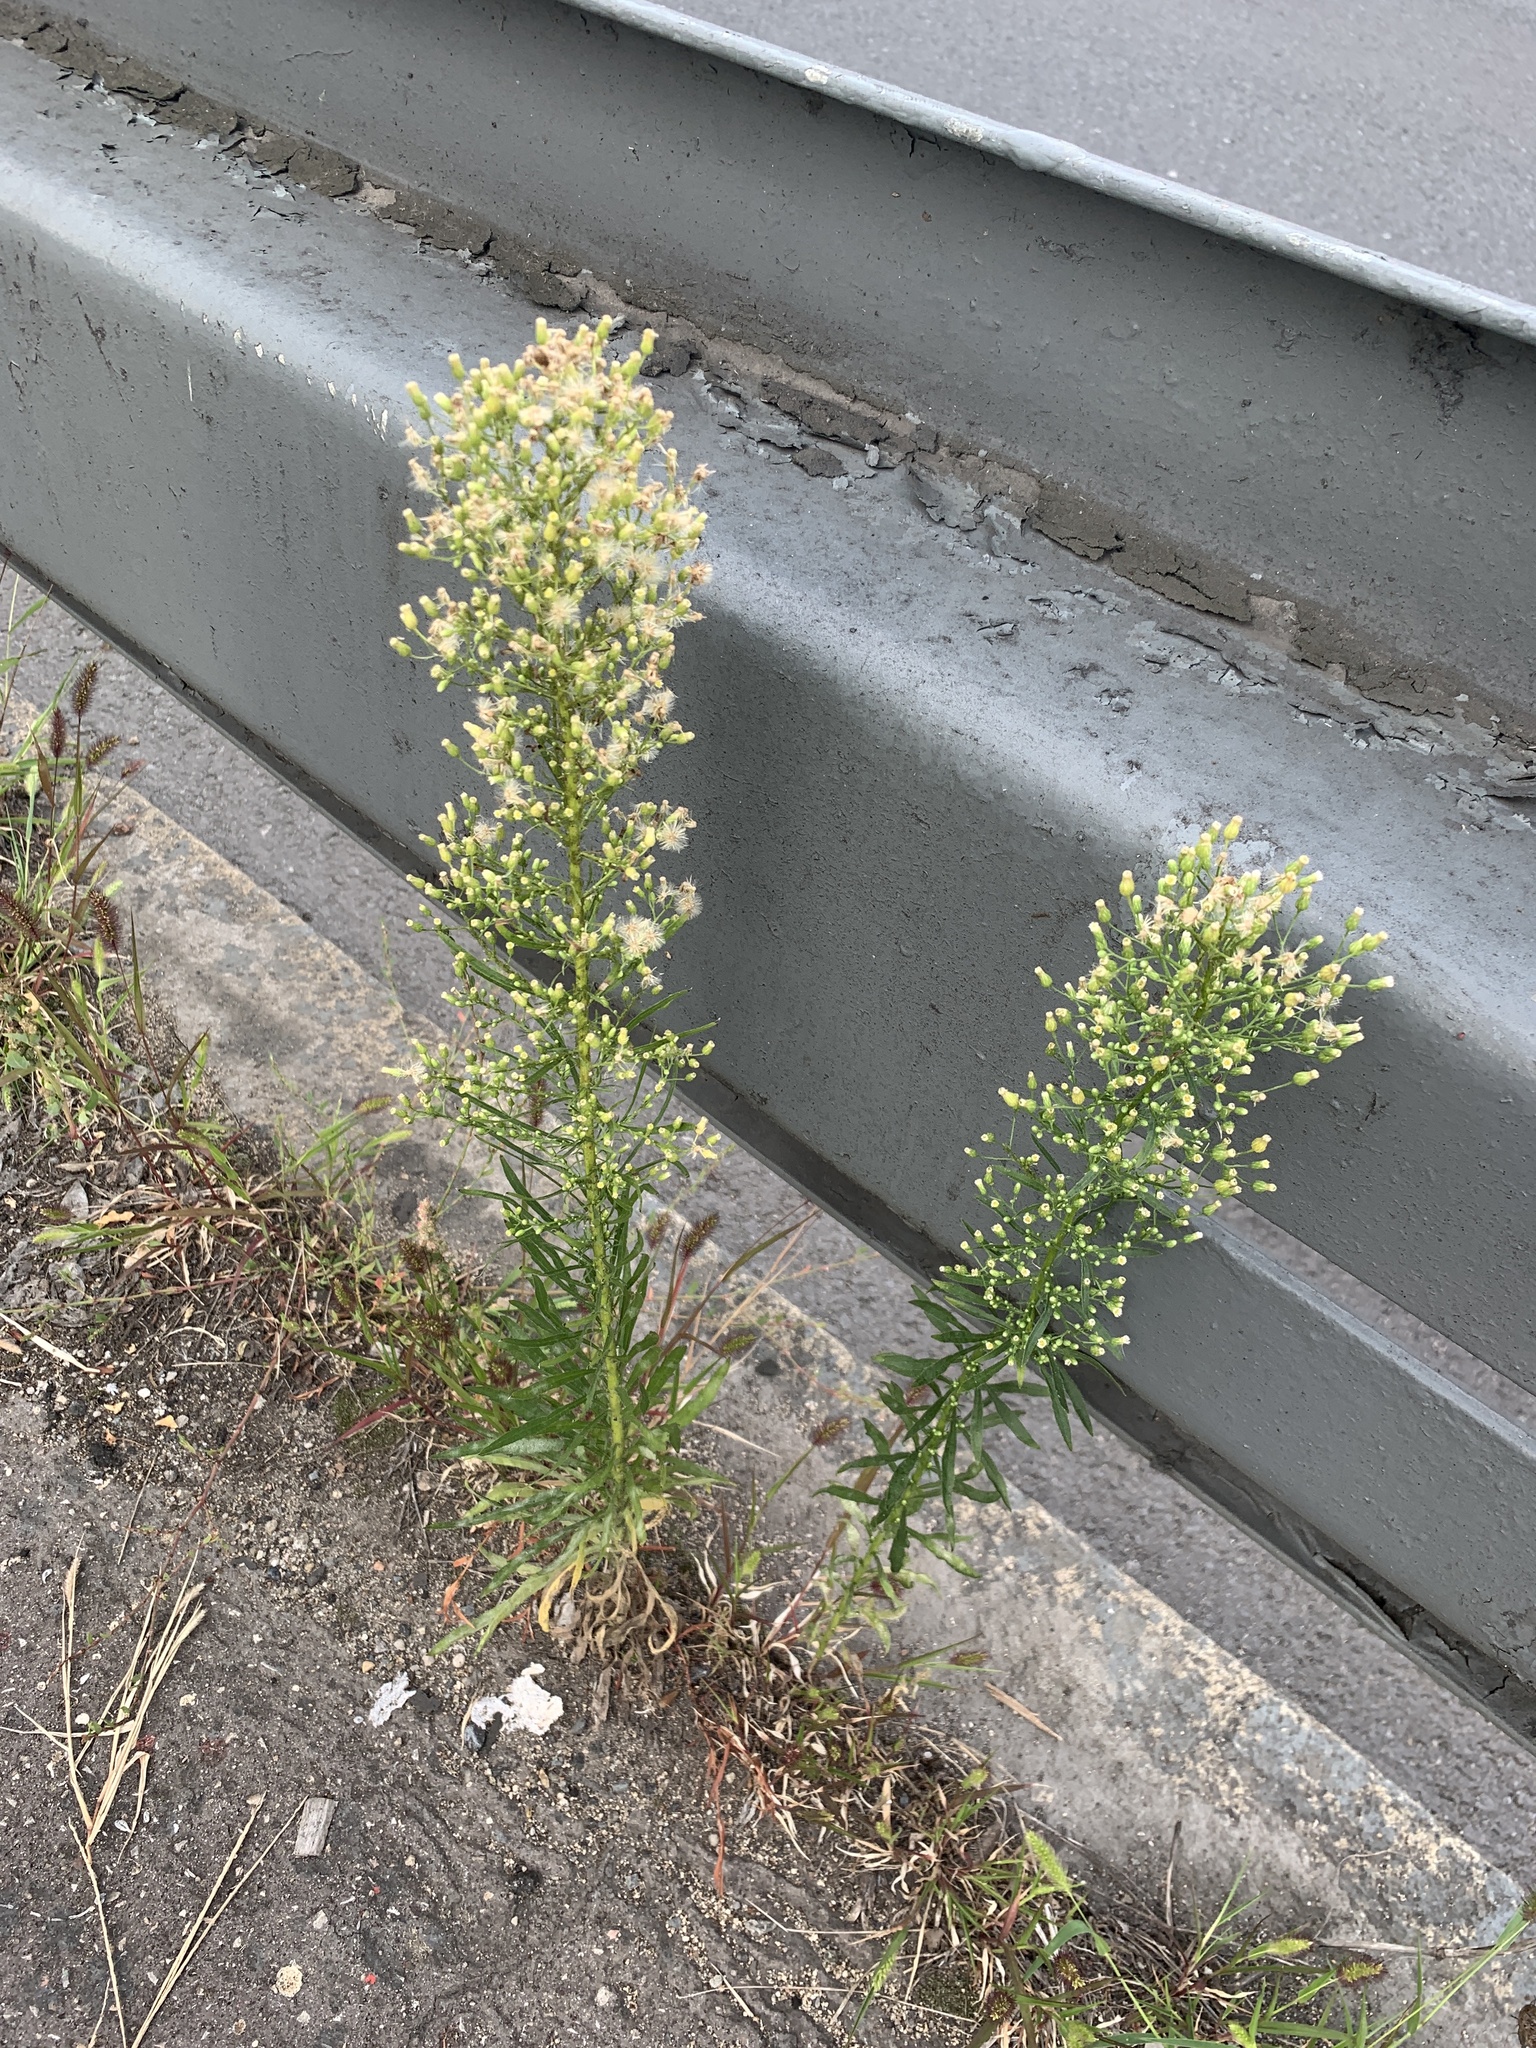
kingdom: Plantae
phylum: Tracheophyta
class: Magnoliopsida
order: Asterales
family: Asteraceae
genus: Erigeron
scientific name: Erigeron canadensis
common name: Canadian fleabane
